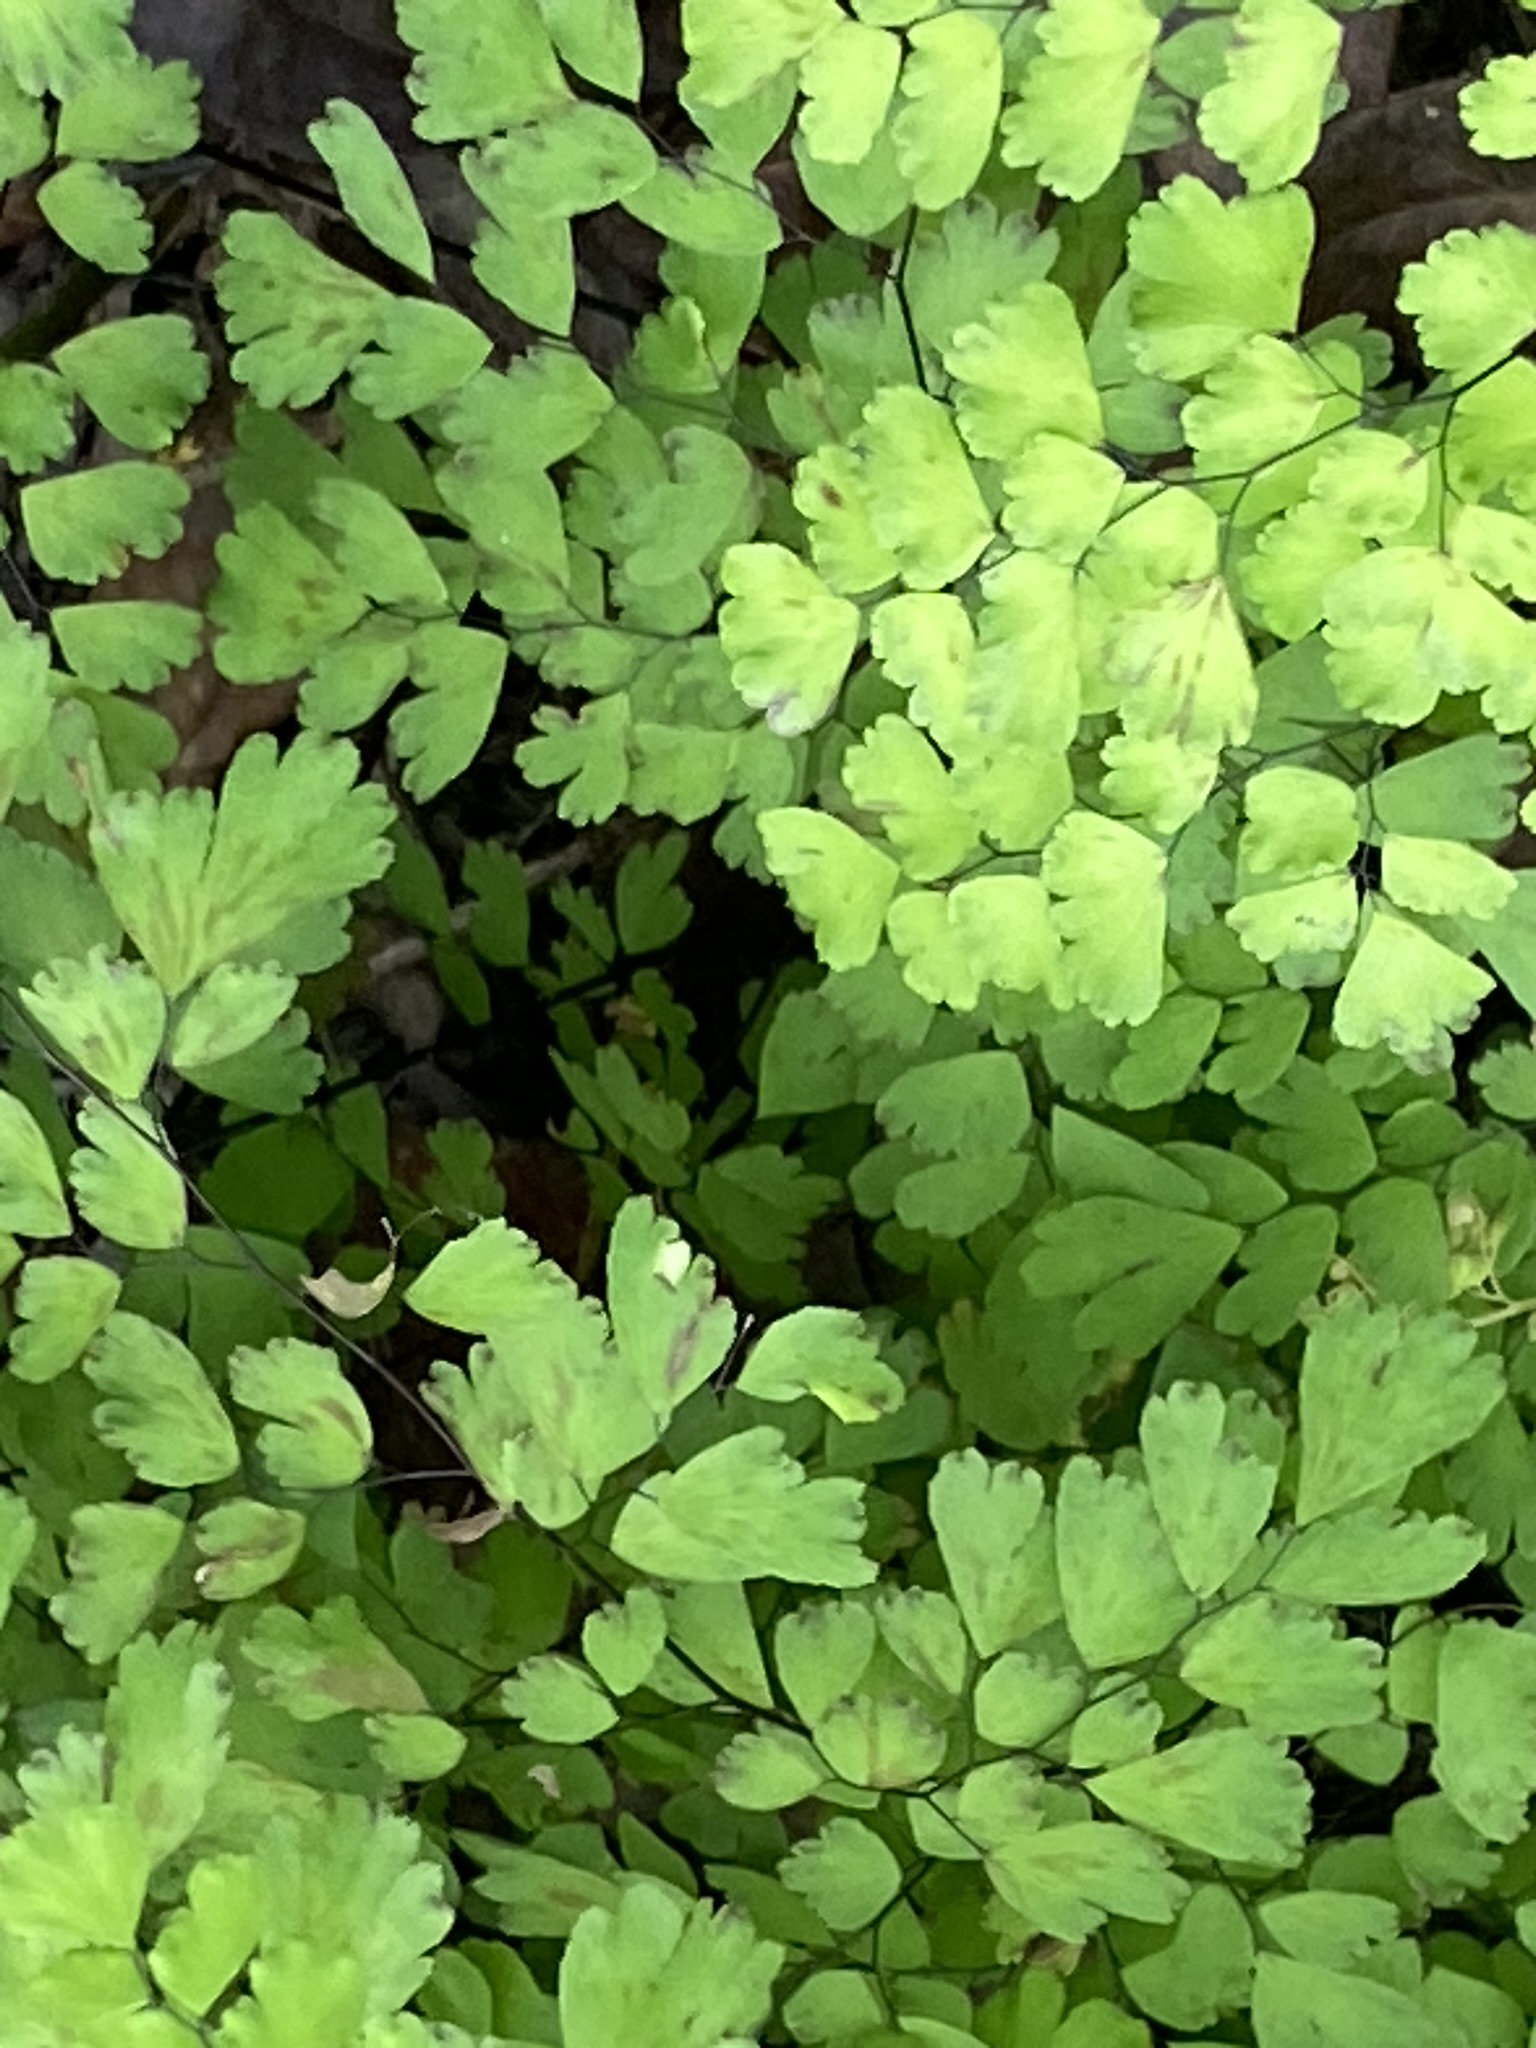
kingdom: Plantae
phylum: Tracheophyta
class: Polypodiopsida
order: Polypodiales
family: Pteridaceae
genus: Adiantum
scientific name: Adiantum raddianum
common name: Delta maidenhair fern
